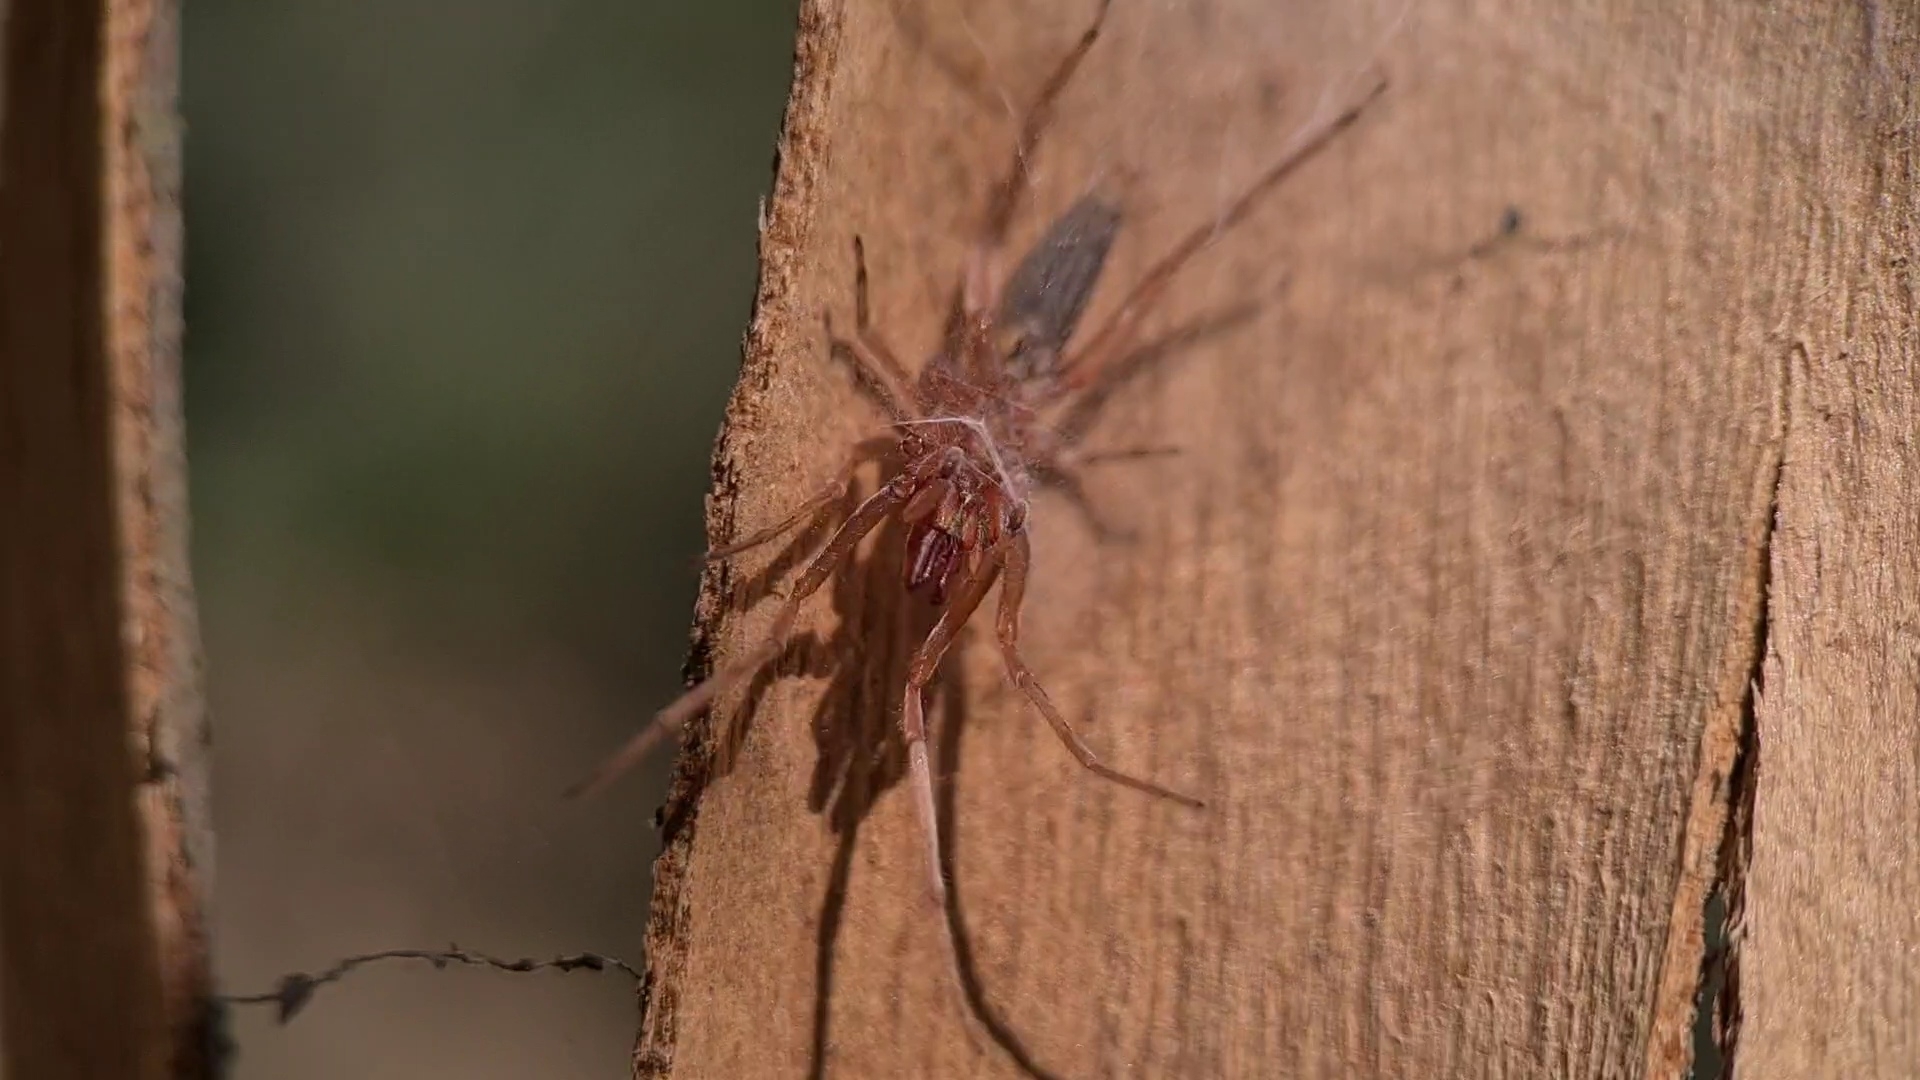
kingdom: Animalia
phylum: Arthropoda
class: Arachnida
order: Araneae
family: Clubionidae
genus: Clubiona
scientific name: Clubiona cycladata
